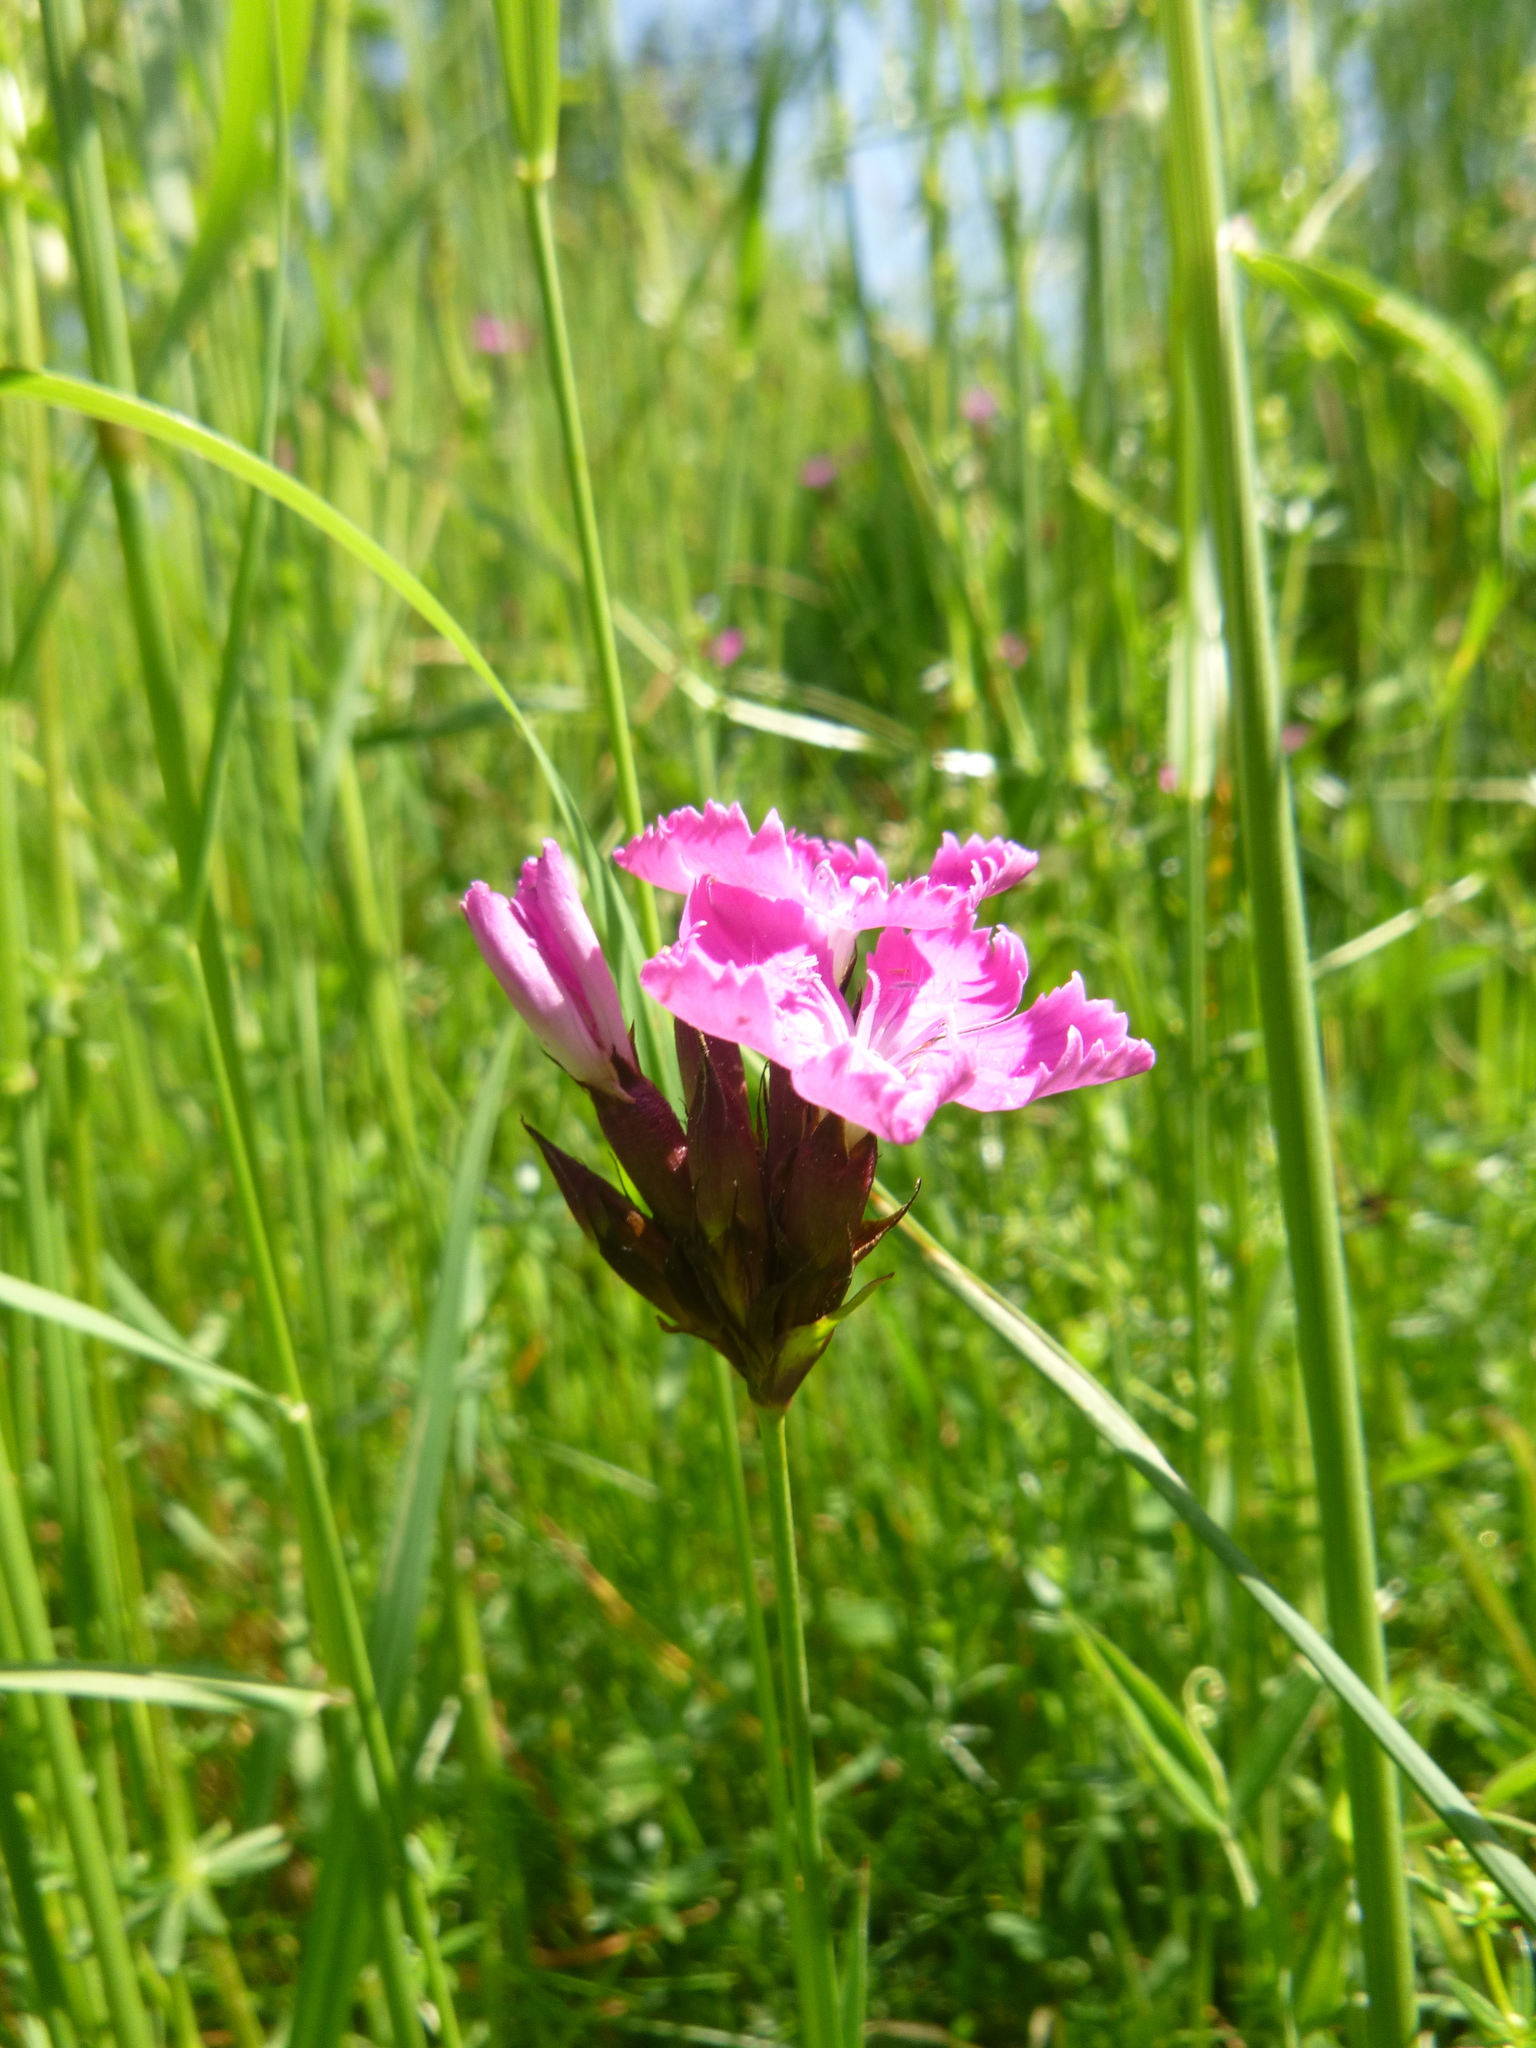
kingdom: Plantae
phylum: Tracheophyta
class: Magnoliopsida
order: Caryophyllales
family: Caryophyllaceae
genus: Dianthus
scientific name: Dianthus carthusianorum
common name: Carthusian pink
